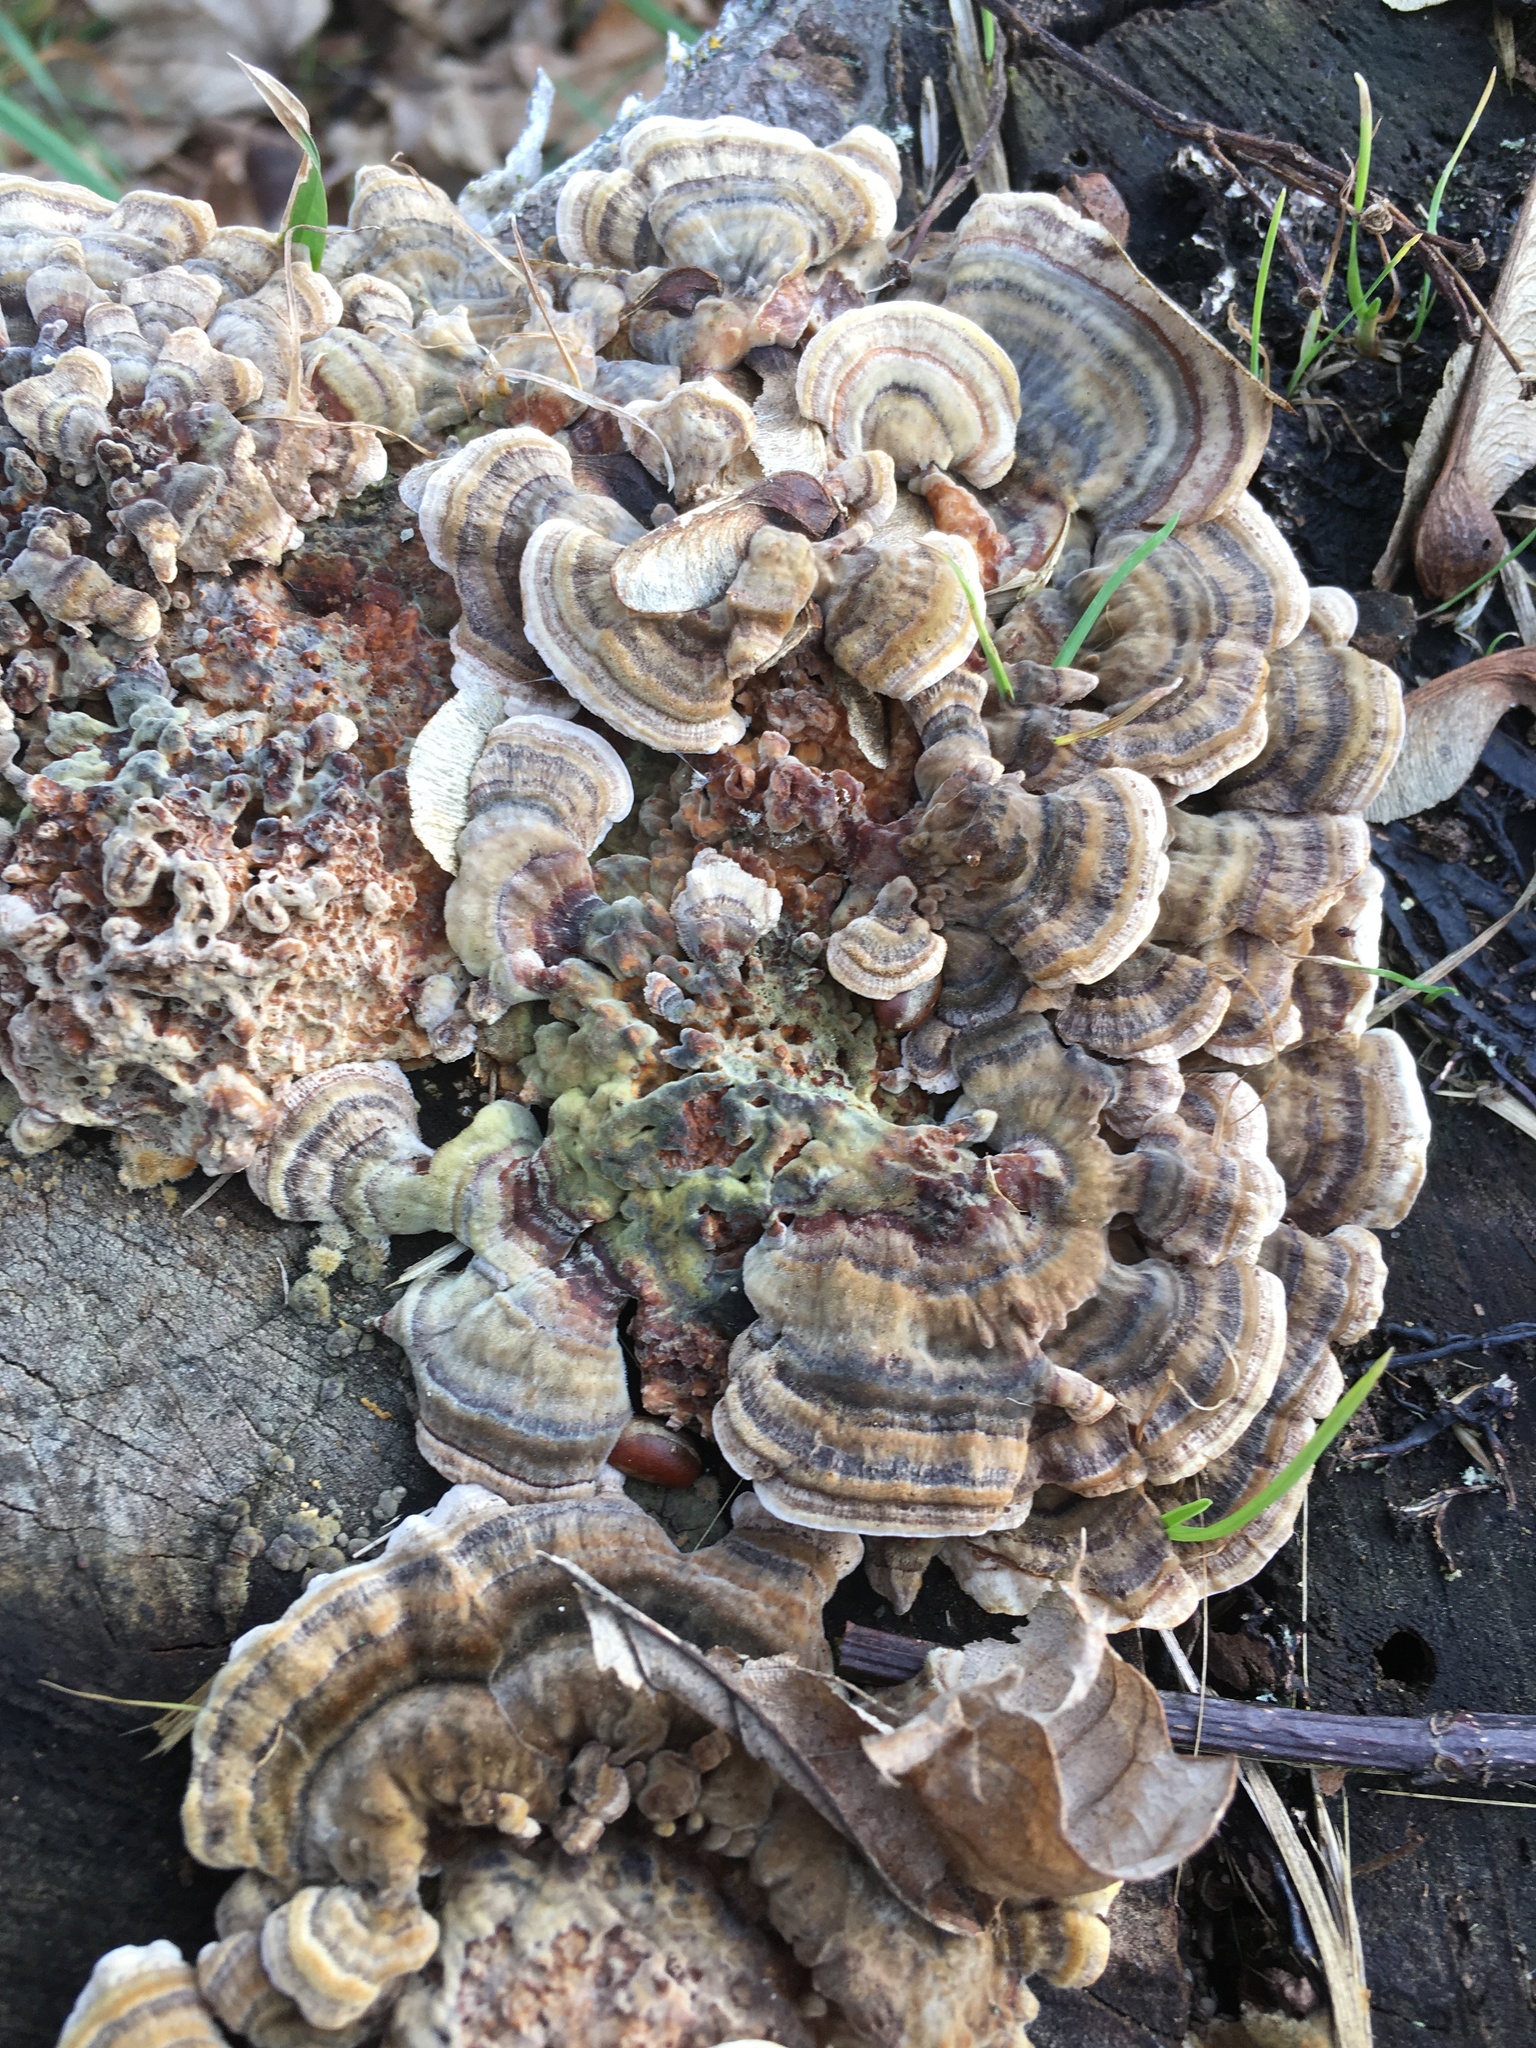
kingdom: Fungi
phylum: Basidiomycota
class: Agaricomycetes
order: Polyporales
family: Polyporaceae
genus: Trametes
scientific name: Trametes versicolor
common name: Turkeytail
